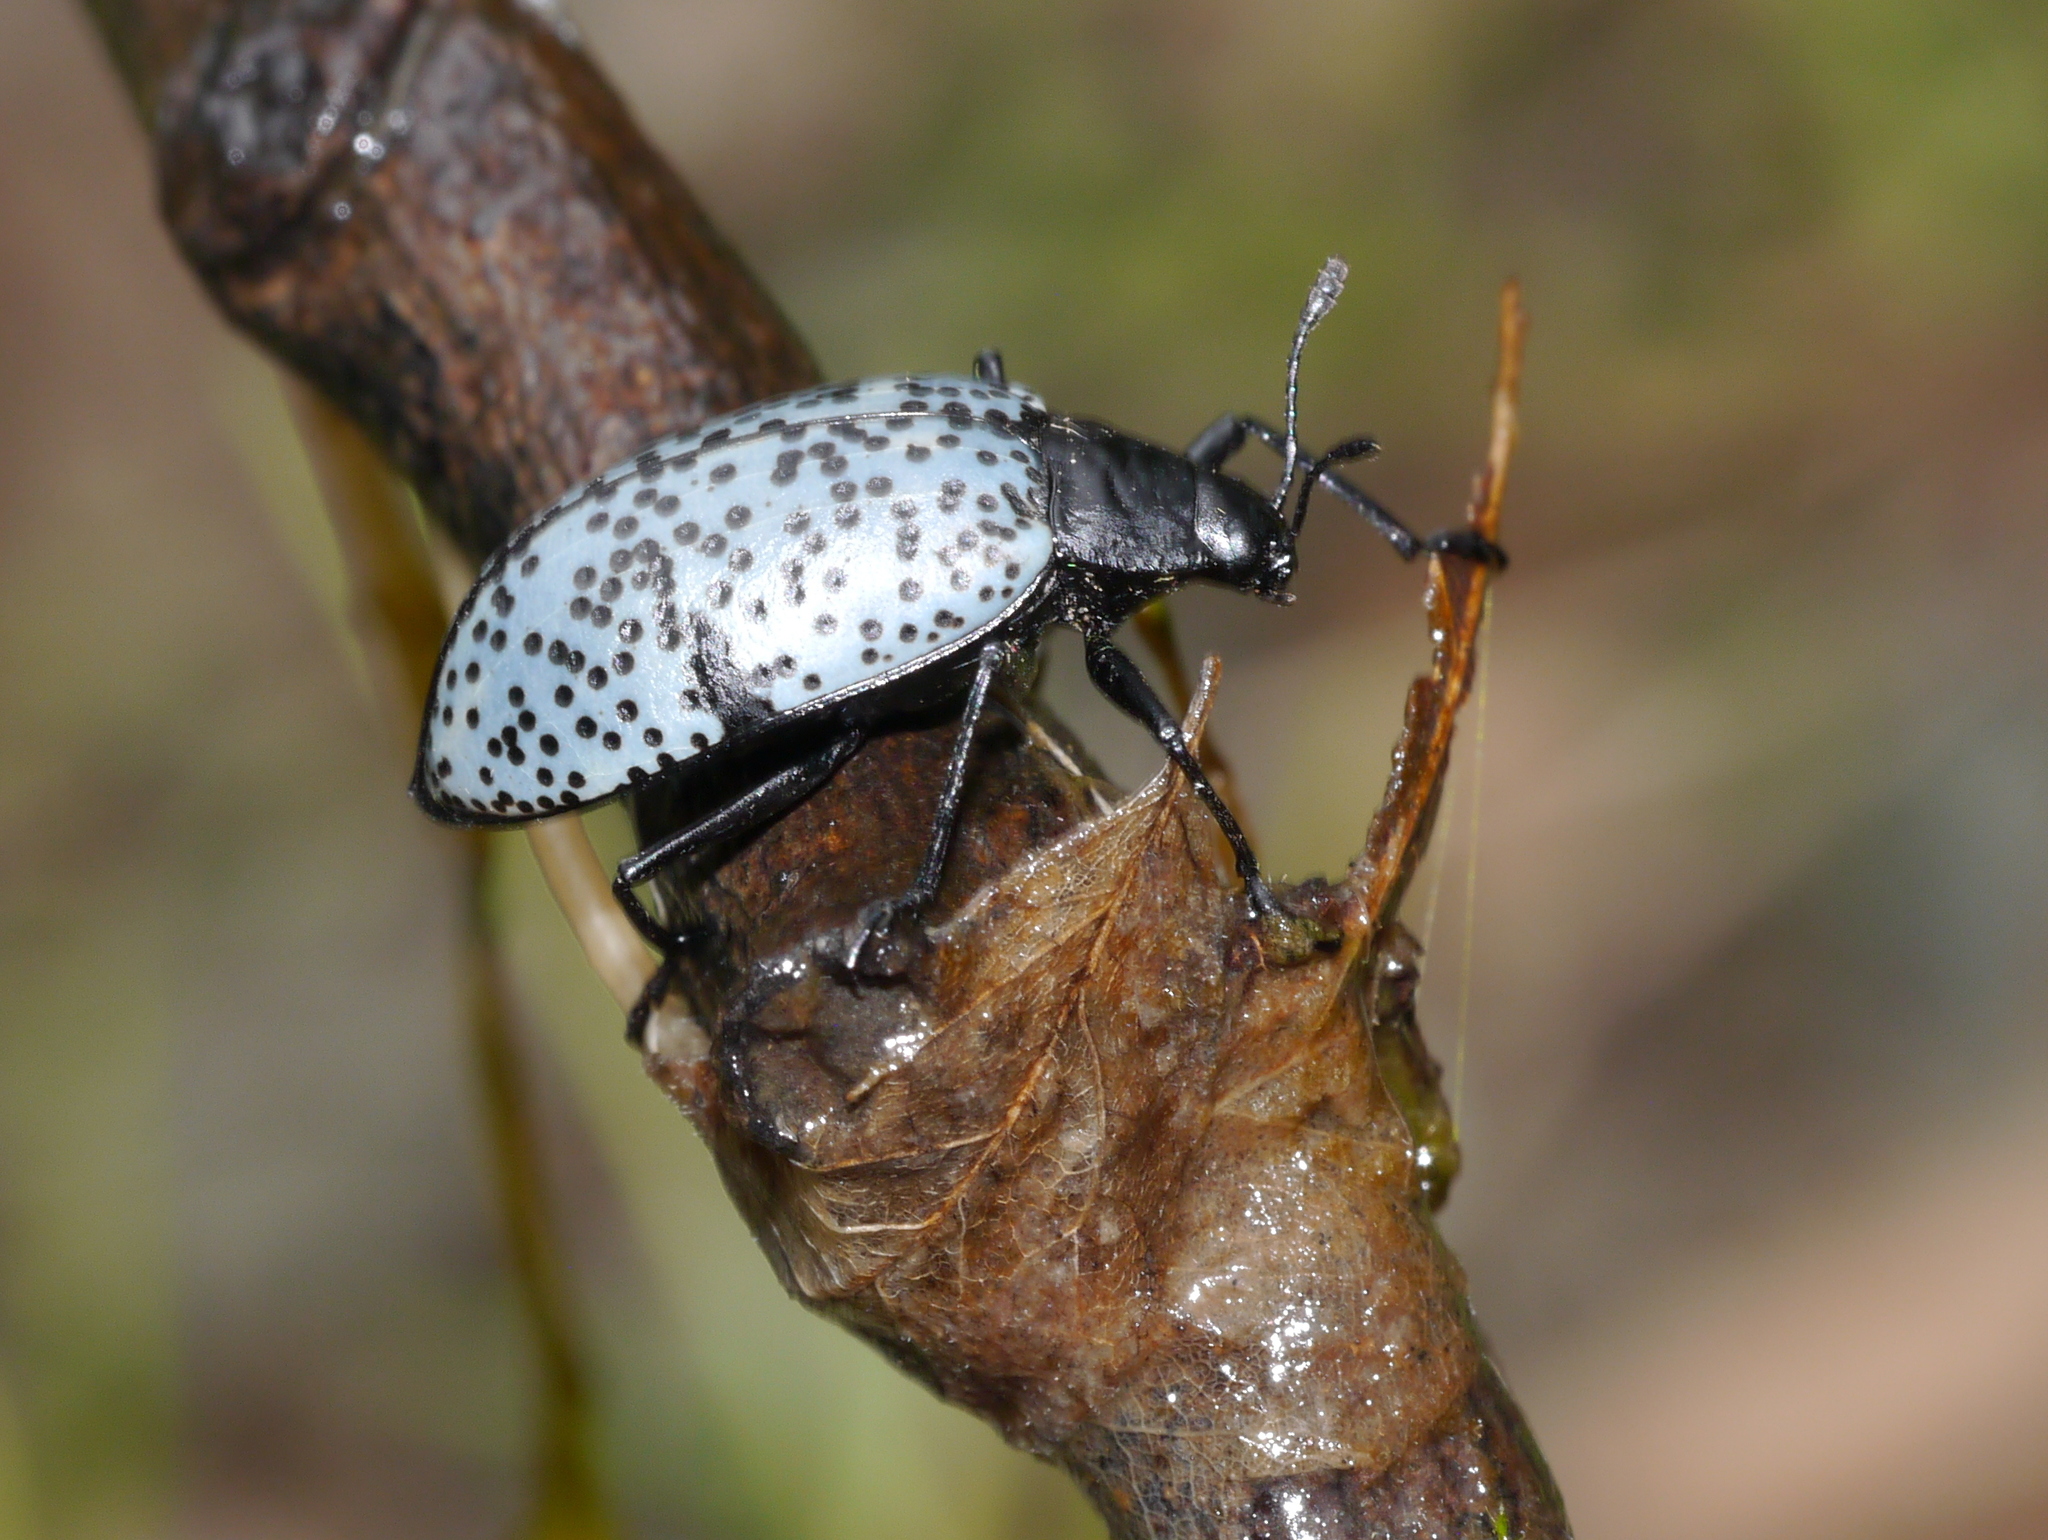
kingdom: Animalia
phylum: Arthropoda
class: Insecta
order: Coleoptera
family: Erotylidae
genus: Gibbifer
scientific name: Gibbifer californicus
